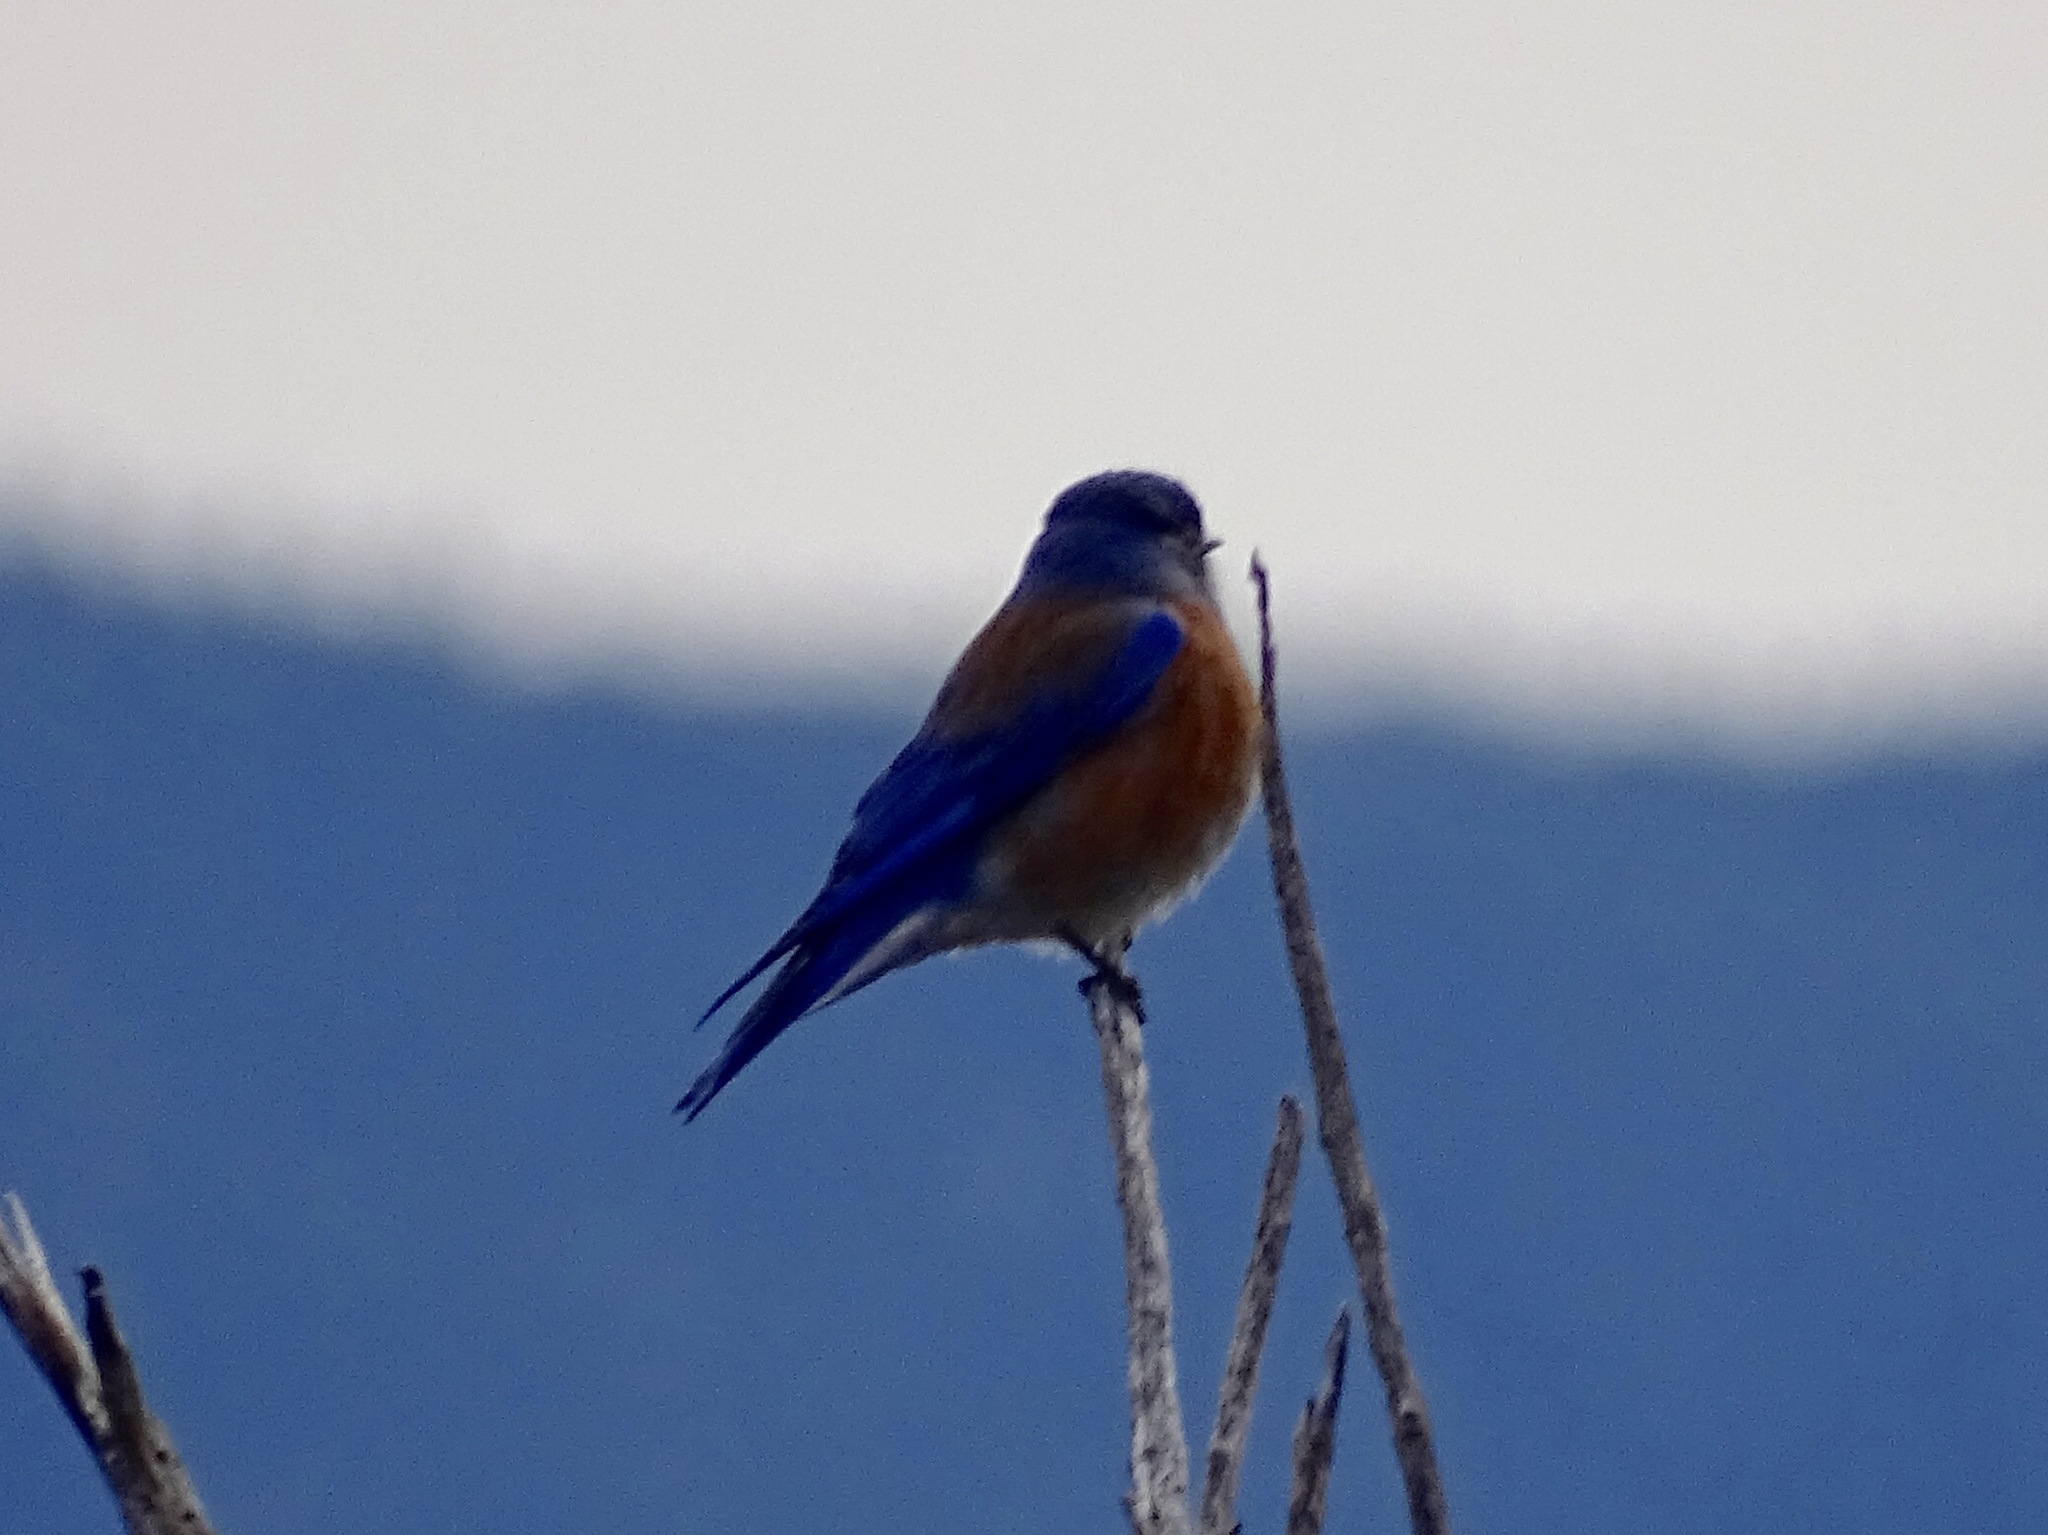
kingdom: Animalia
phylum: Chordata
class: Aves
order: Passeriformes
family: Turdidae
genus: Sialia
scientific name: Sialia mexicana
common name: Western bluebird
